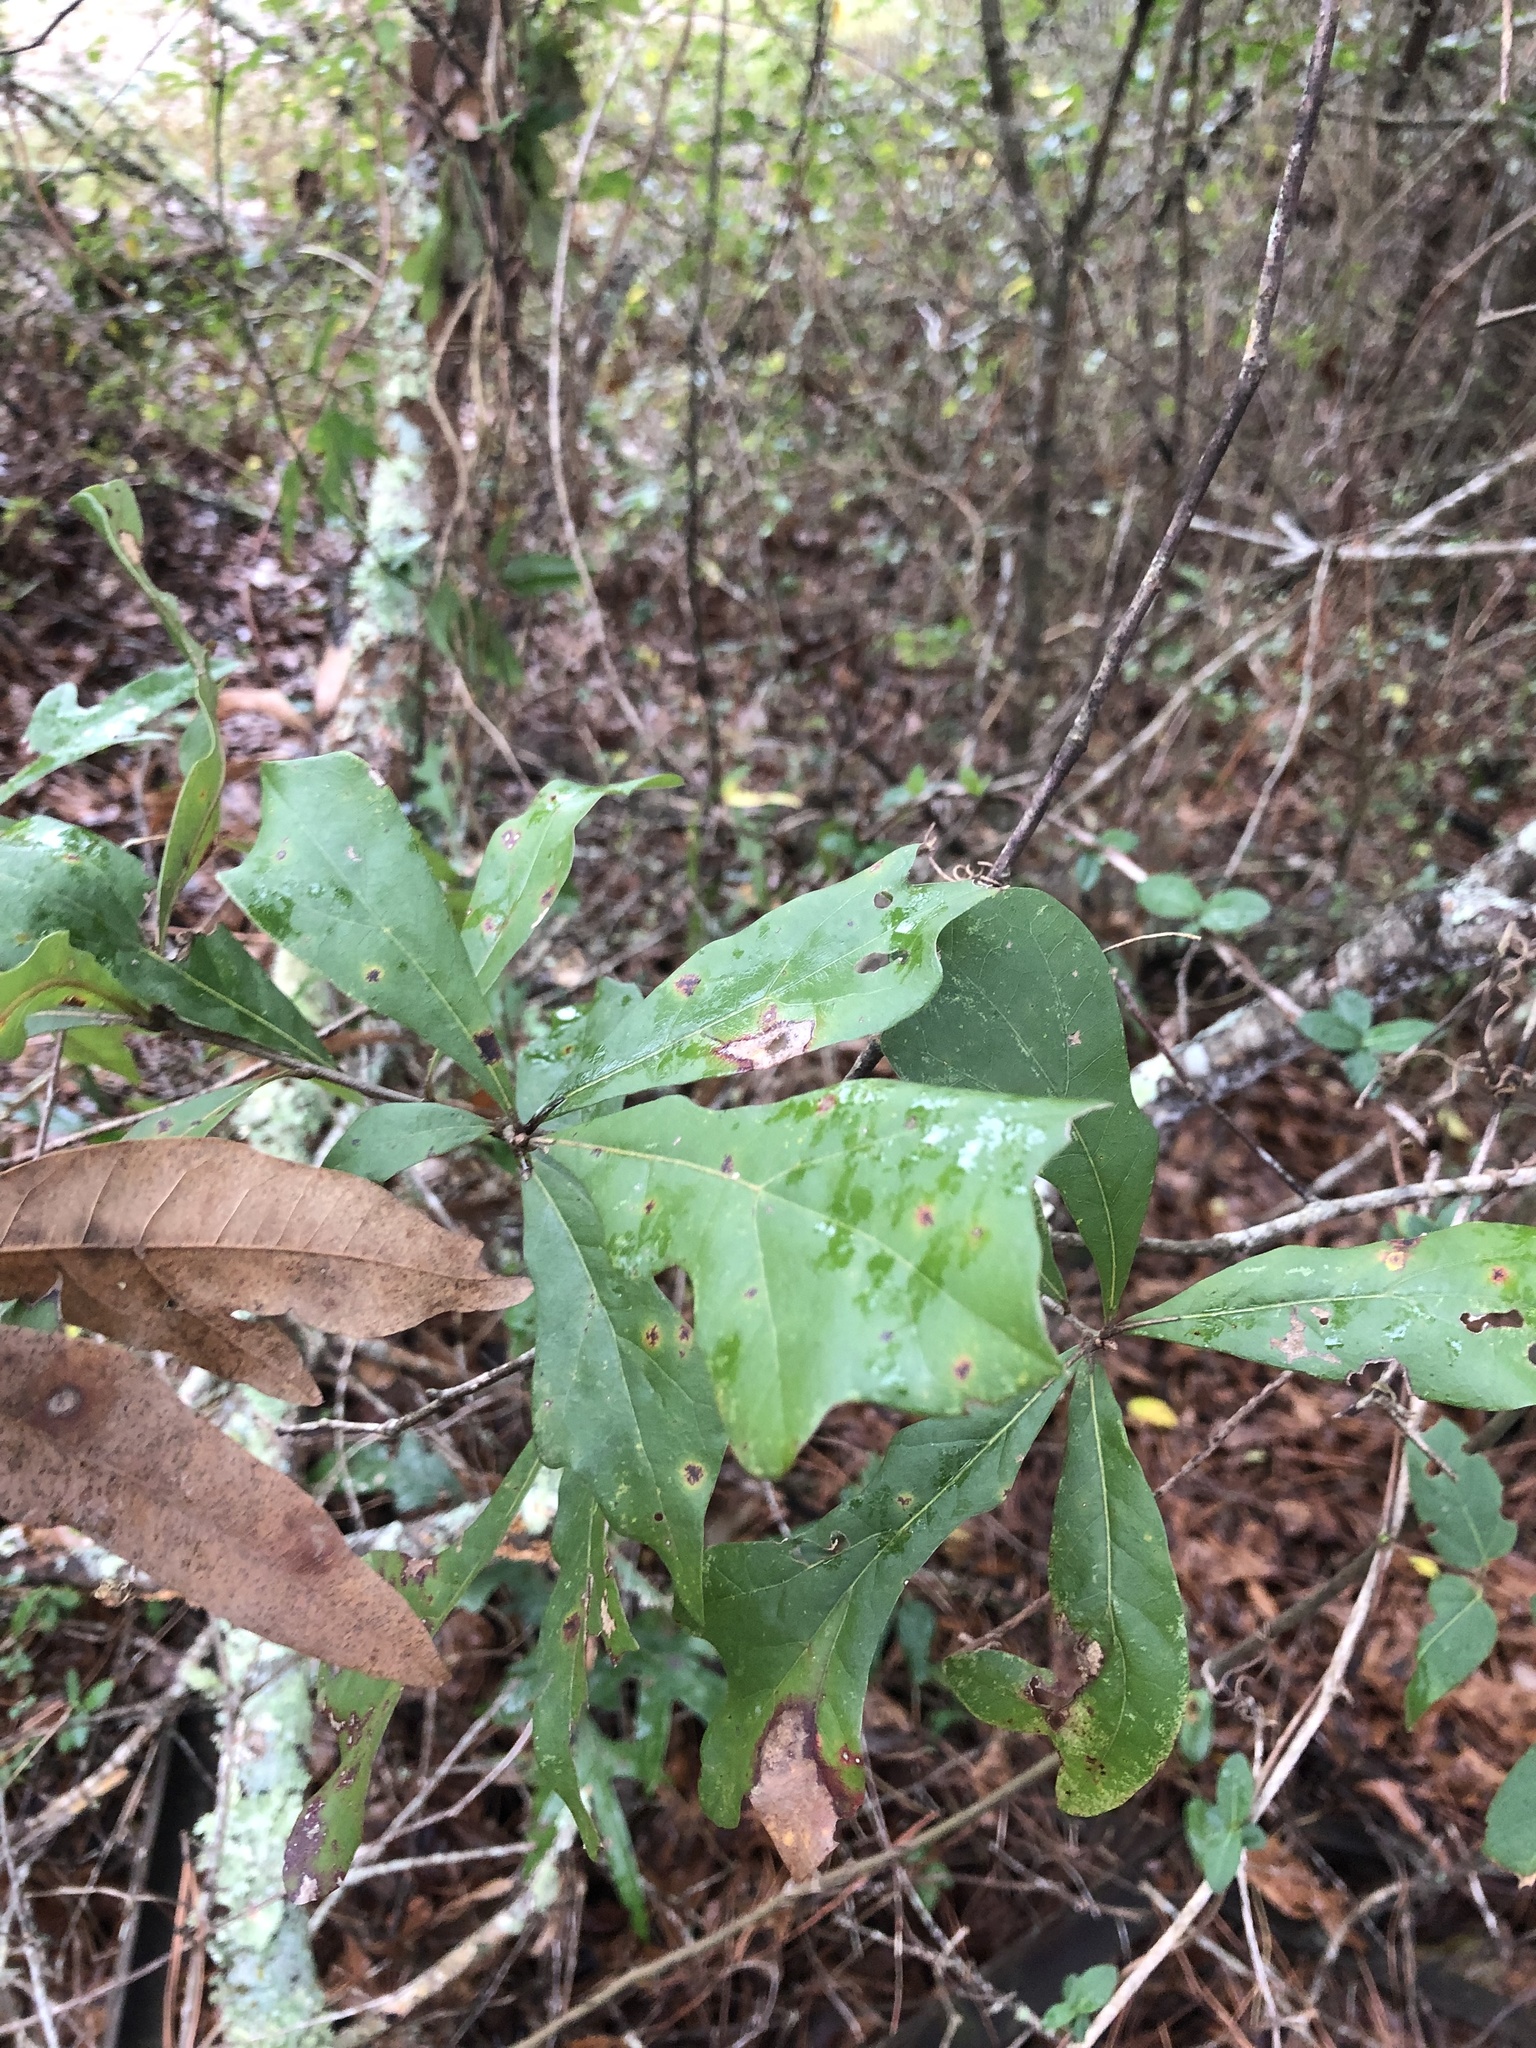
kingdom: Plantae
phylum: Tracheophyta
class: Magnoliopsida
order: Fagales
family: Fagaceae
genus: Quercus
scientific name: Quercus nigra
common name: Water oak
